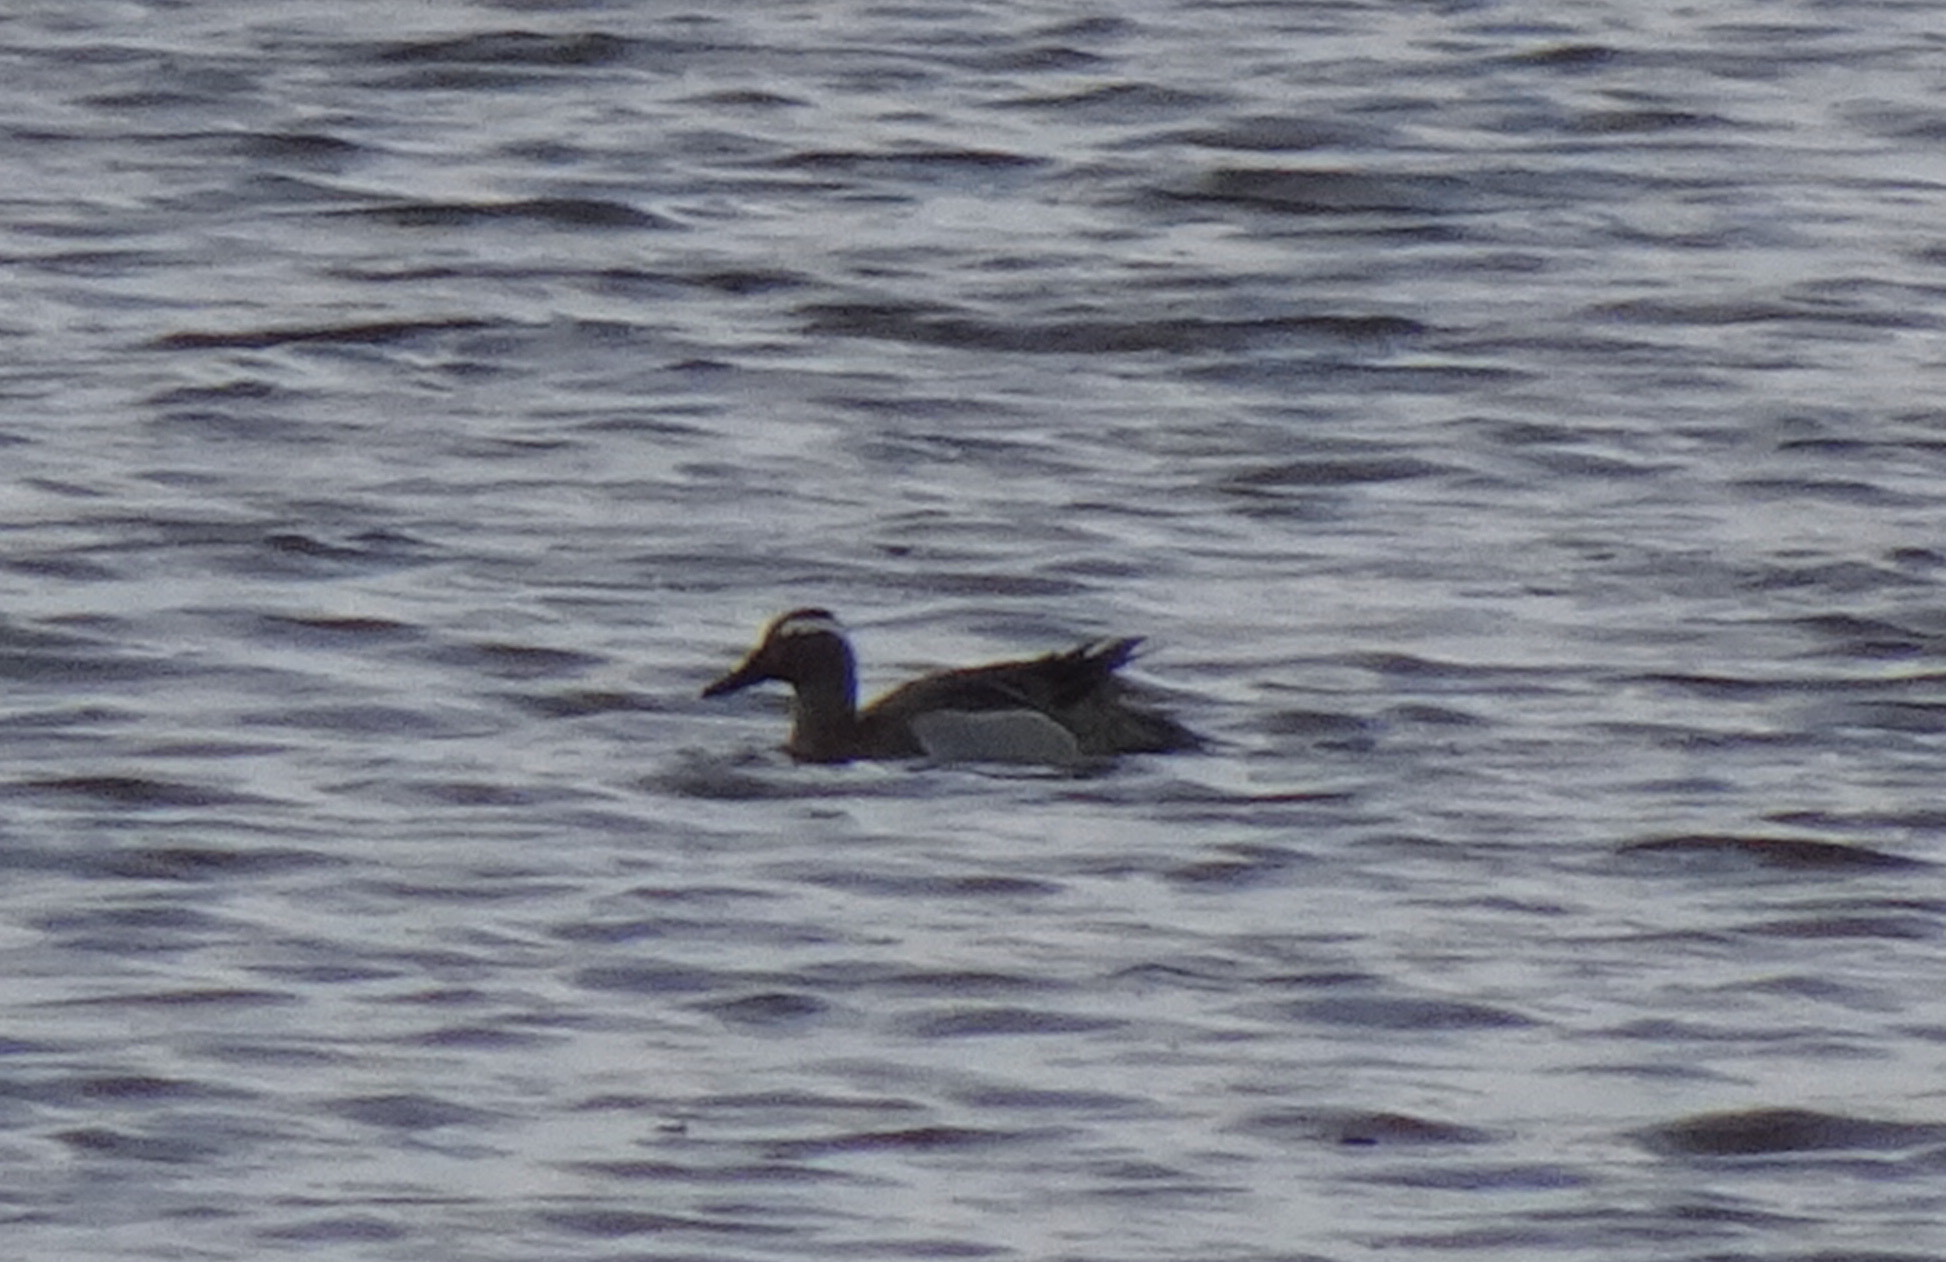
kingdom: Animalia
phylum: Chordata
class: Aves
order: Anseriformes
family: Anatidae
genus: Spatula
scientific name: Spatula querquedula
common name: Garganey
